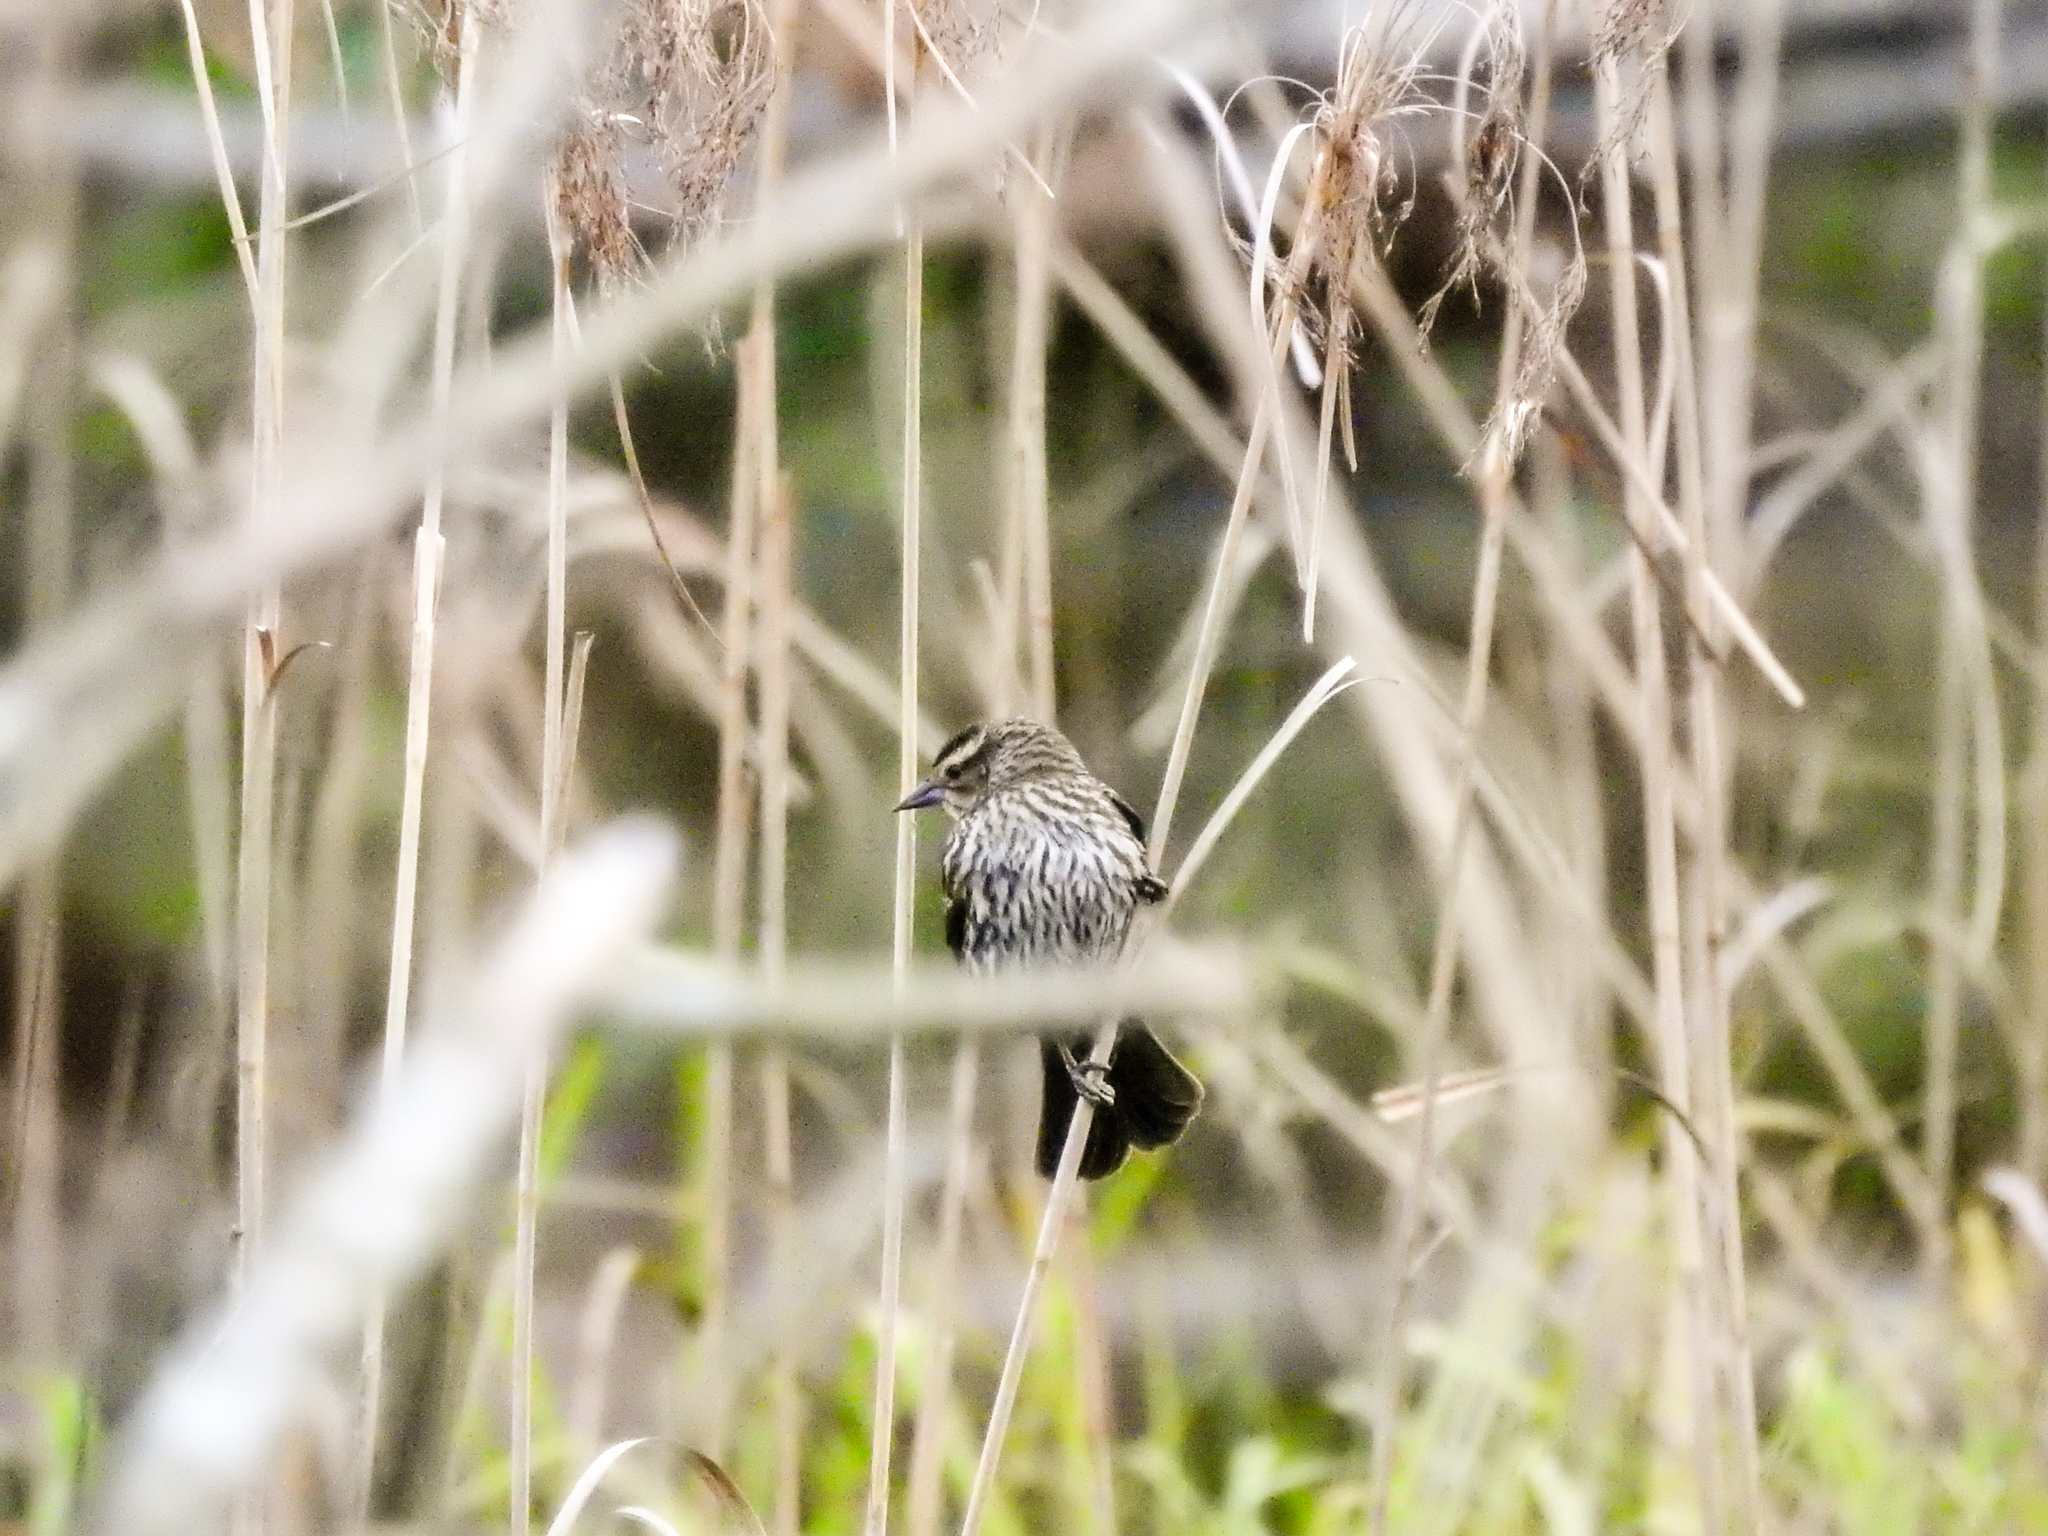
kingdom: Animalia
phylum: Chordata
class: Aves
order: Passeriformes
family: Icteridae
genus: Agelaius
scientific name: Agelaius phoeniceus
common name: Red-winged blackbird
